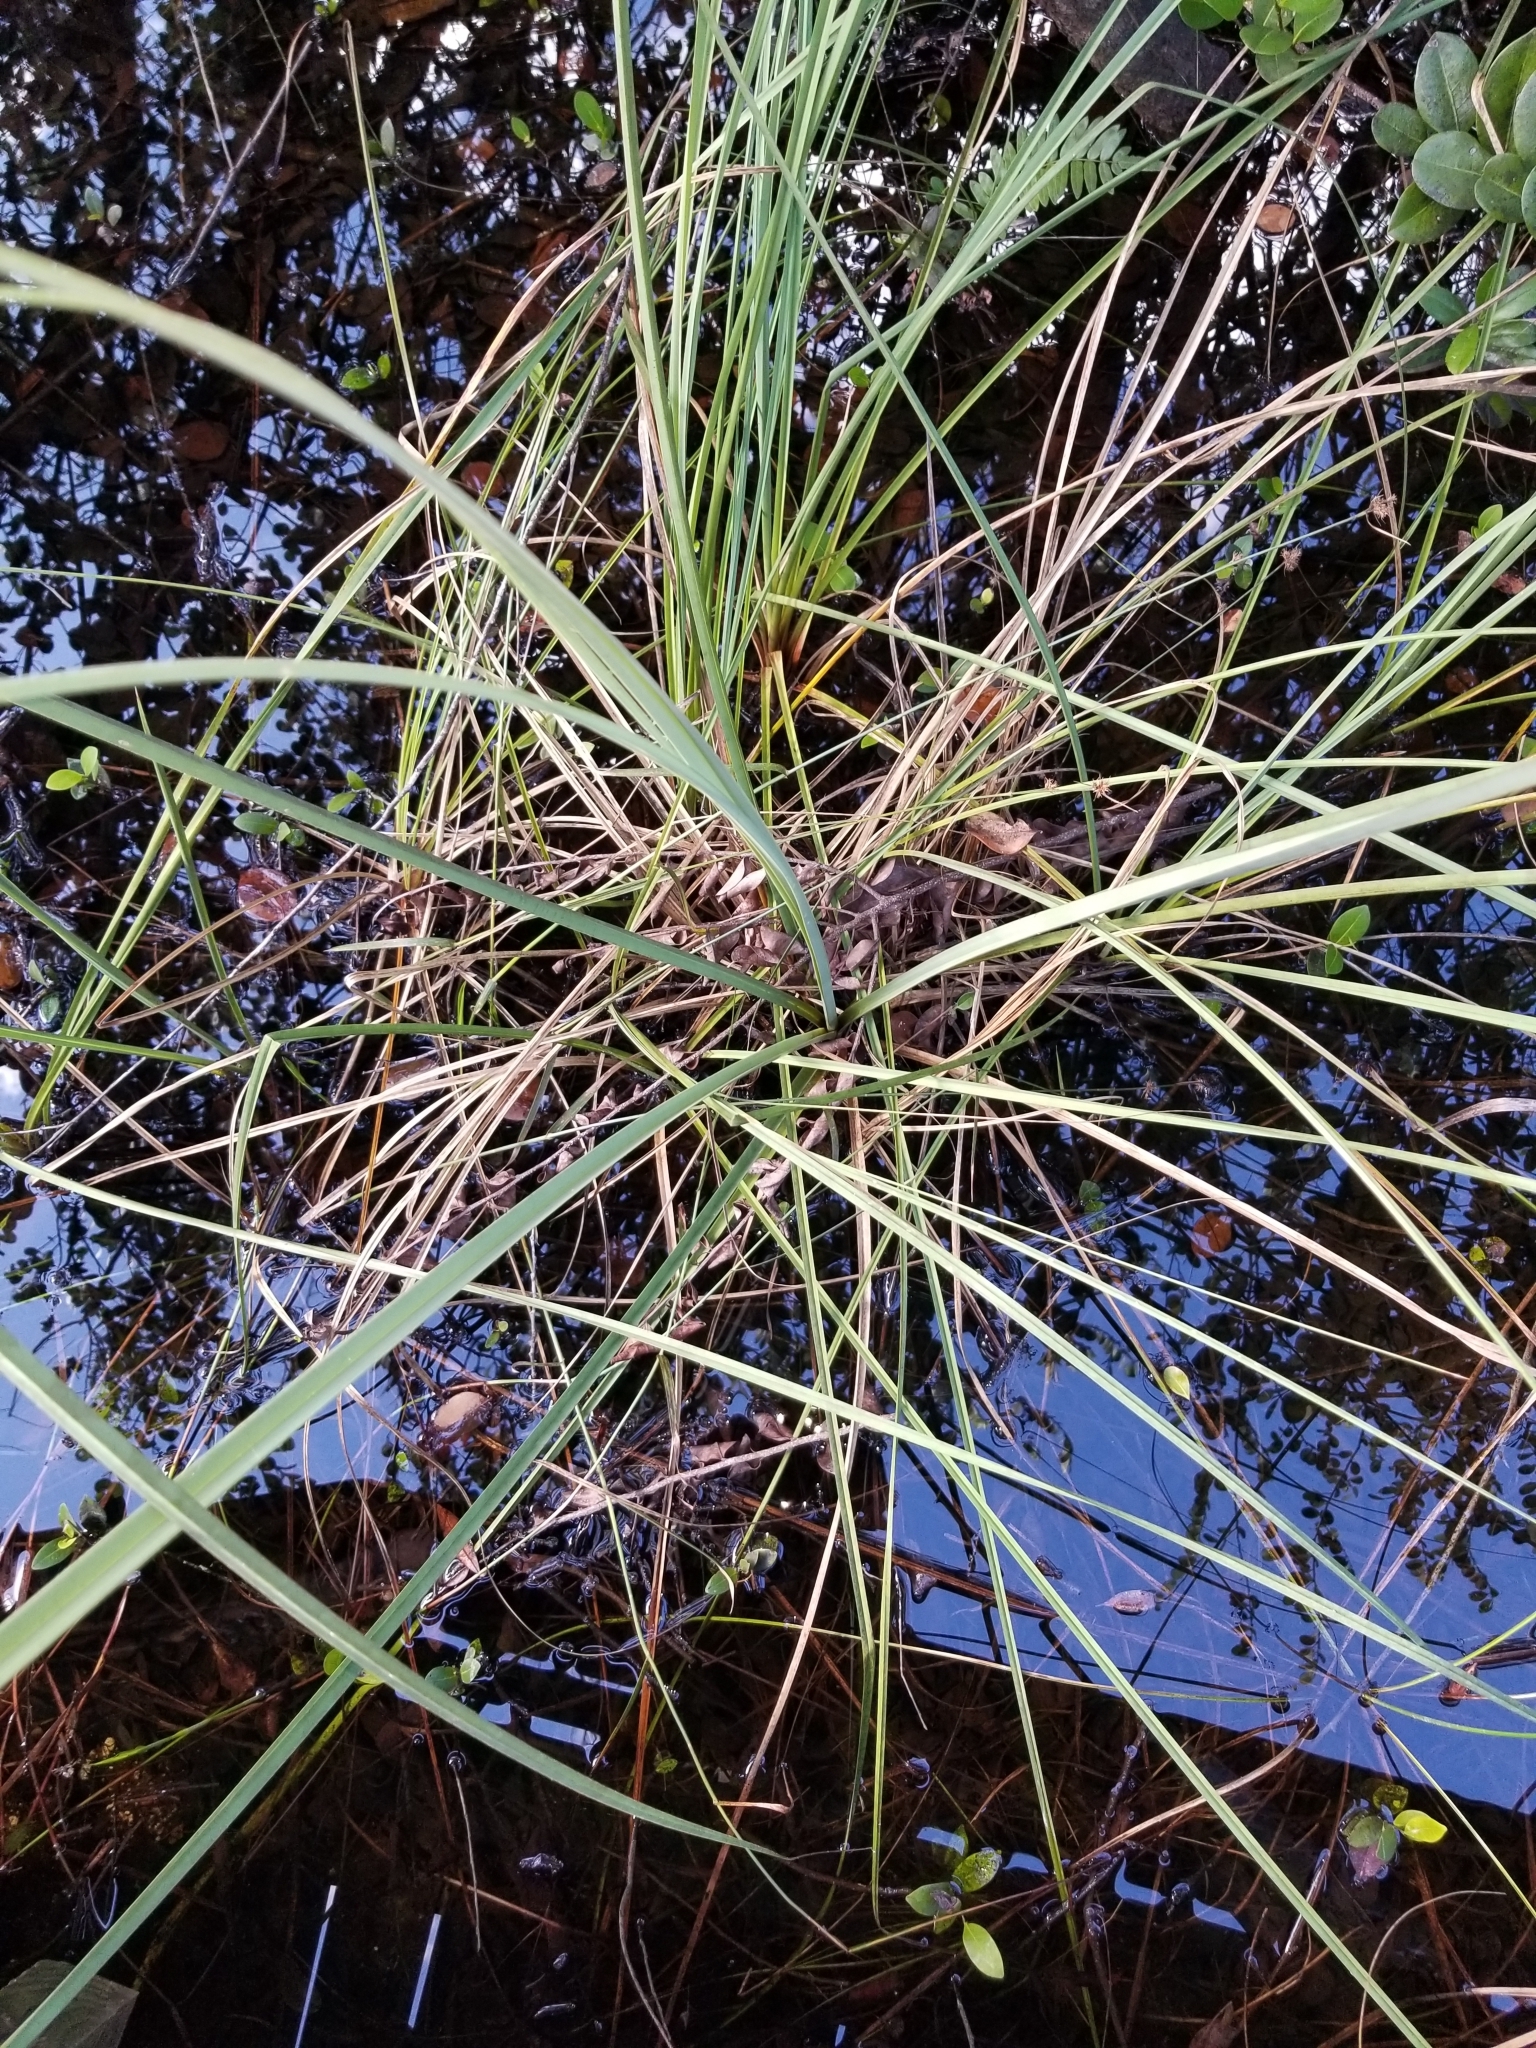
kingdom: Plantae
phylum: Tracheophyta
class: Liliopsida
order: Poales
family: Cyperaceae
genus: Cladium
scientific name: Cladium mariscus
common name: Great fen-sedge
